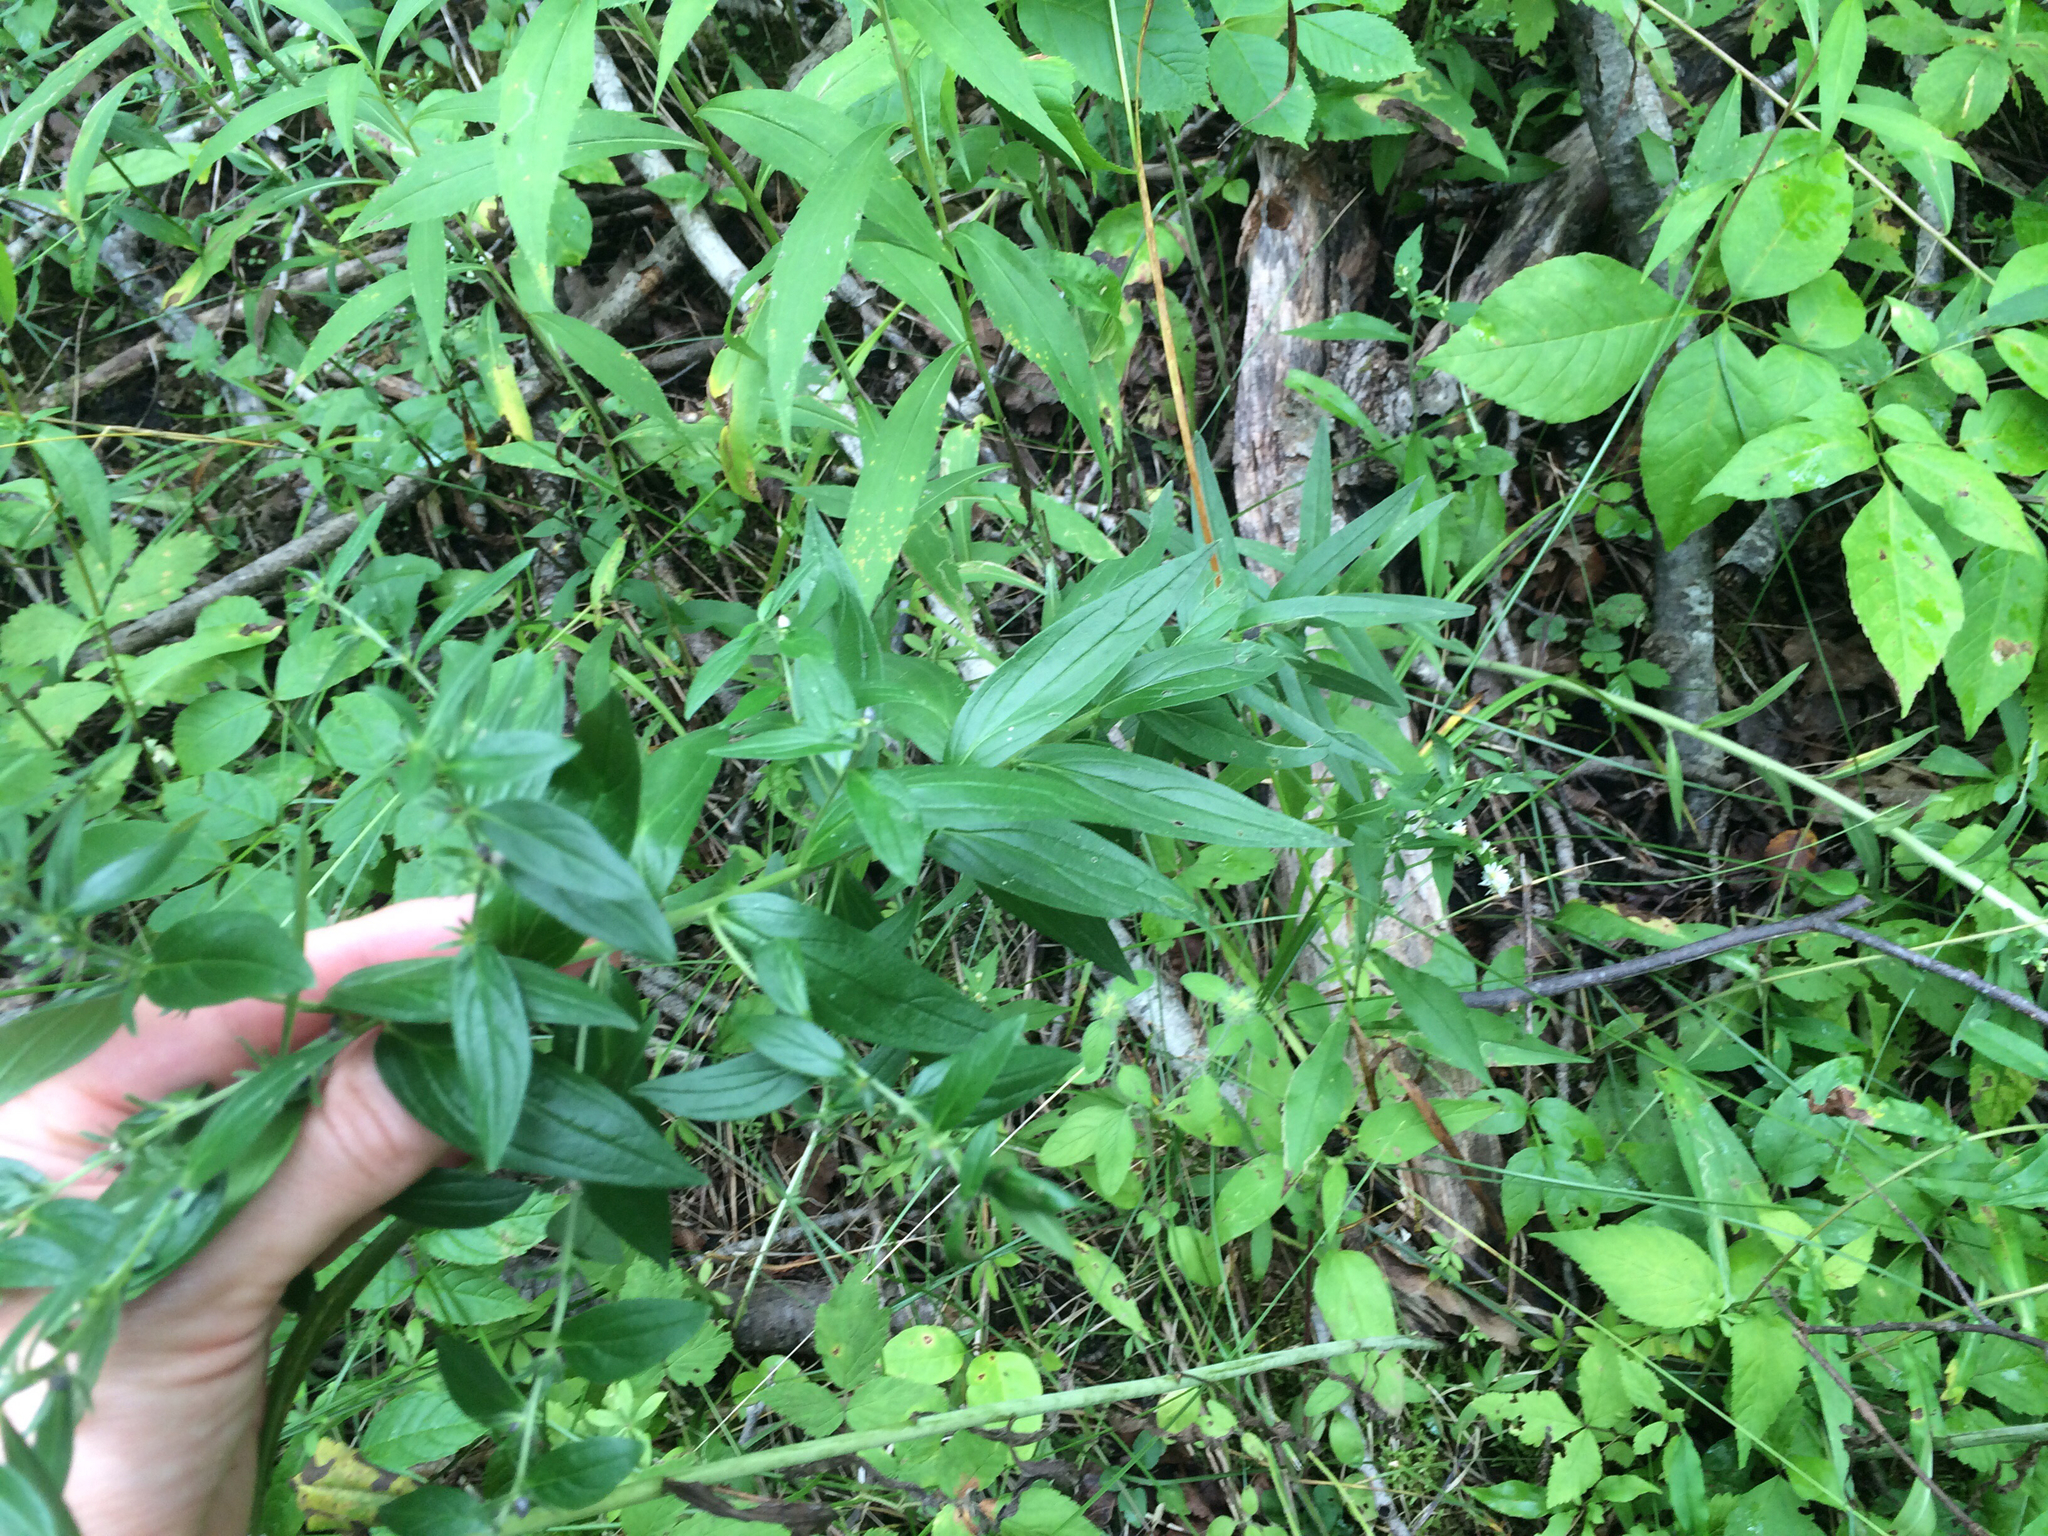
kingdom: Plantae
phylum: Tracheophyta
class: Magnoliopsida
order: Boraginales
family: Boraginaceae
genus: Lithospermum
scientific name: Lithospermum officinale
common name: Common gromwell
